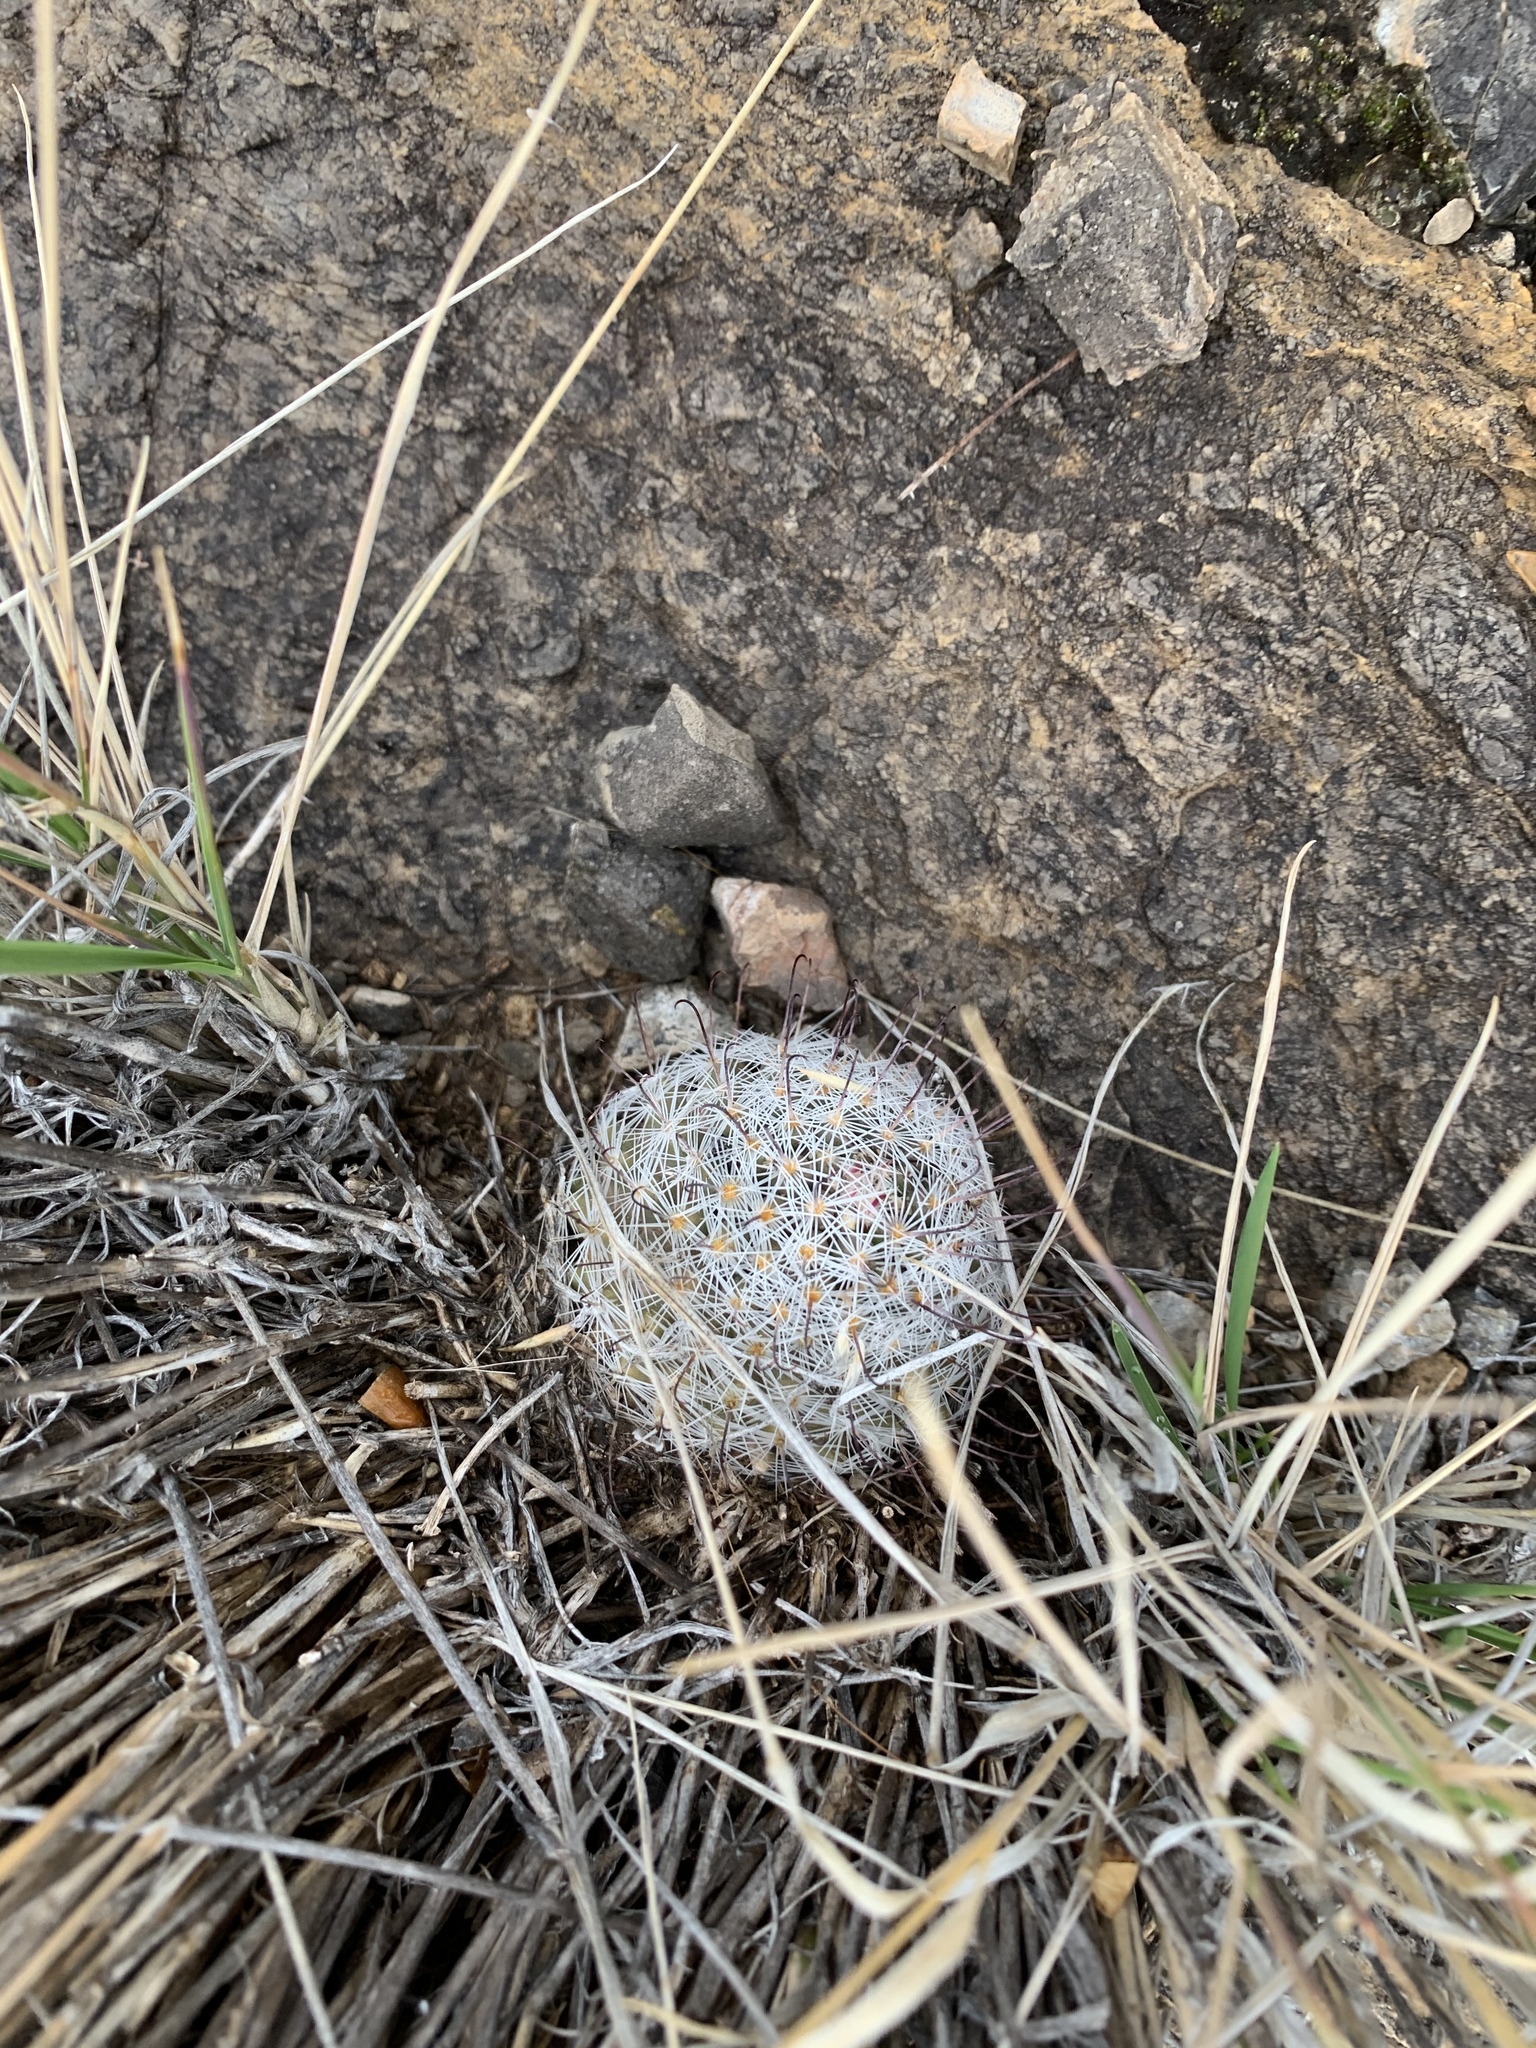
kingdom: Plantae
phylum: Tracheophyta
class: Magnoliopsida
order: Caryophyllales
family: Cactaceae
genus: Cochemiea
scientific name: Cochemiea grahamii
